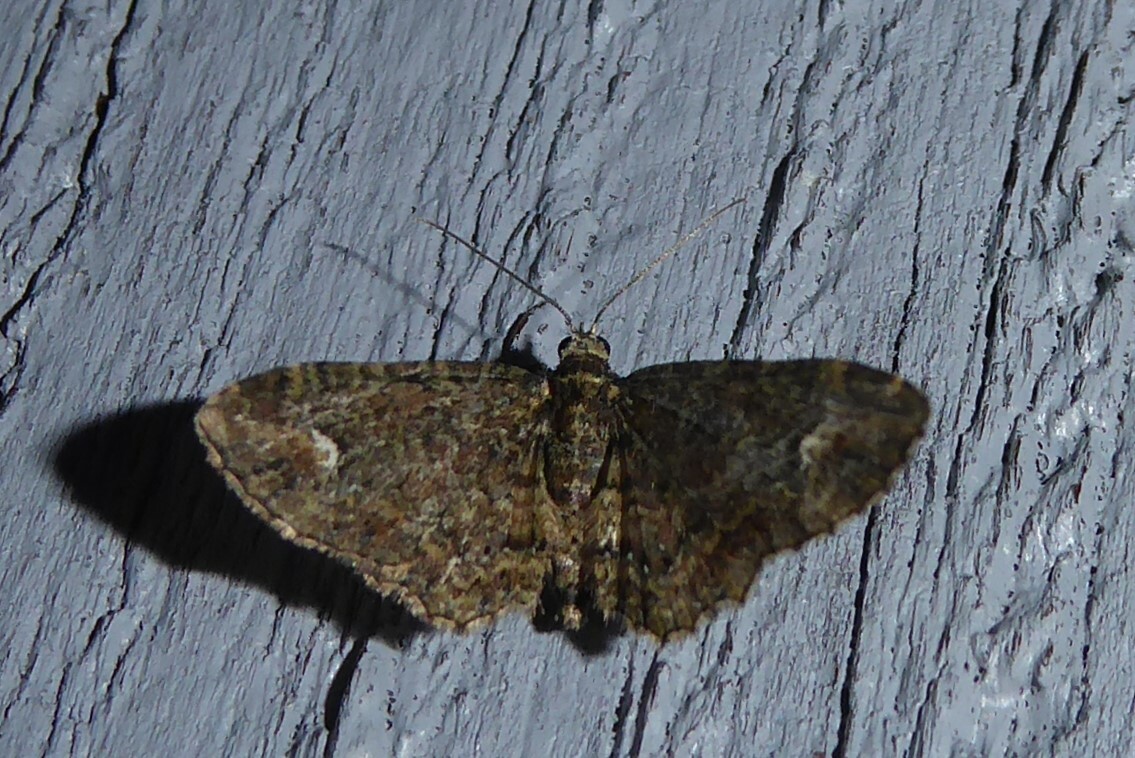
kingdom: Animalia
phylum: Arthropoda
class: Insecta
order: Lepidoptera
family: Geometridae
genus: Pasiphilodes
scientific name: Pasiphilodes testulata
